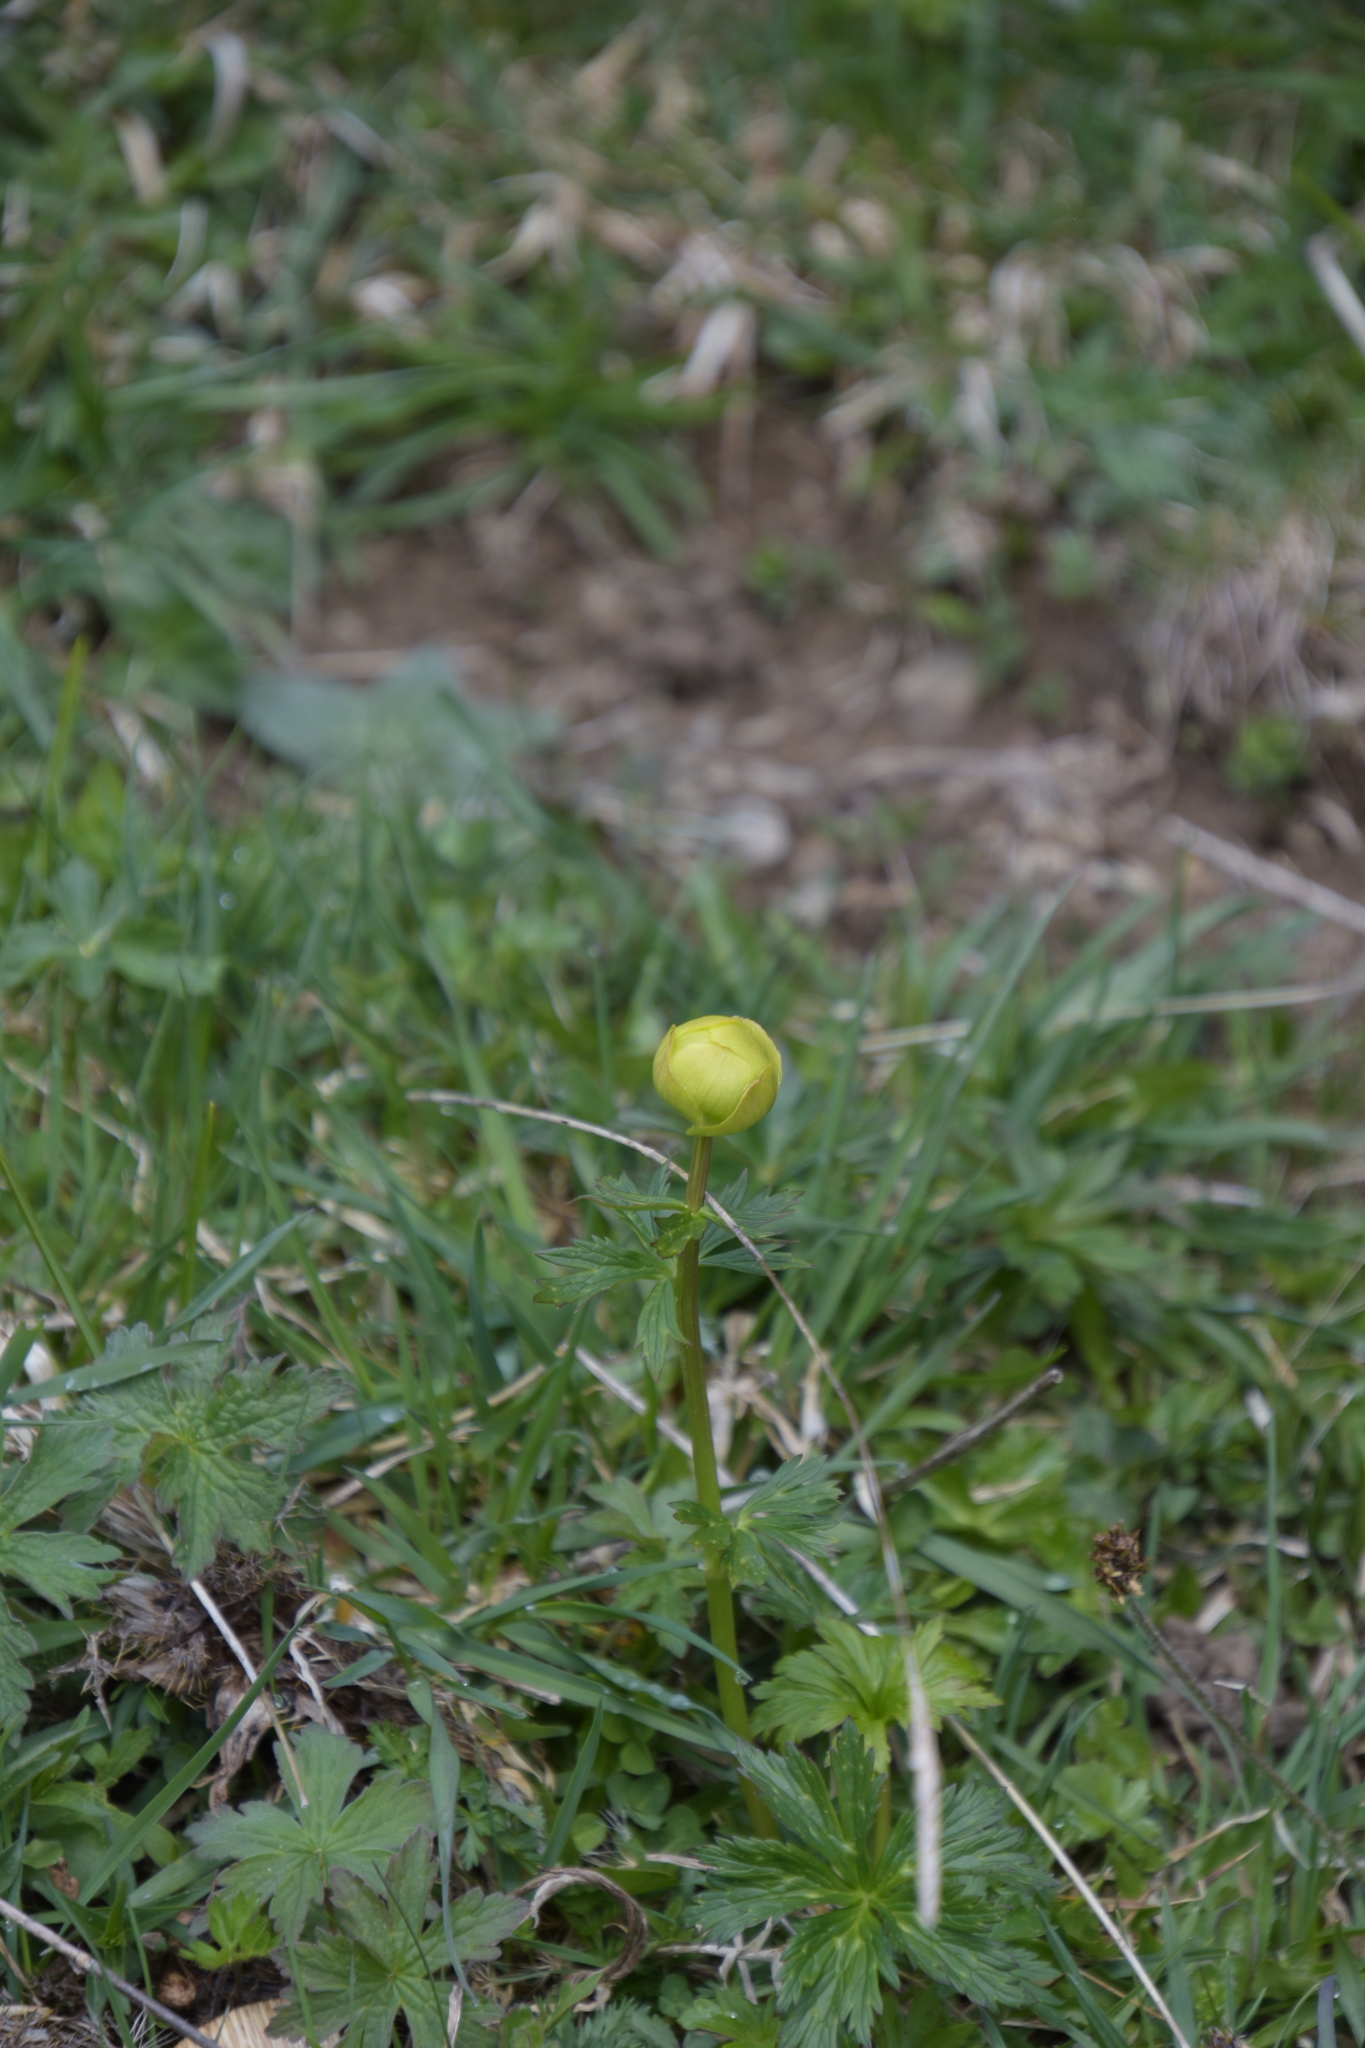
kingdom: Plantae
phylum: Tracheophyta
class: Magnoliopsida
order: Ranunculales
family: Ranunculaceae
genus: Trollius
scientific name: Trollius europaeus
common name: European globeflower
